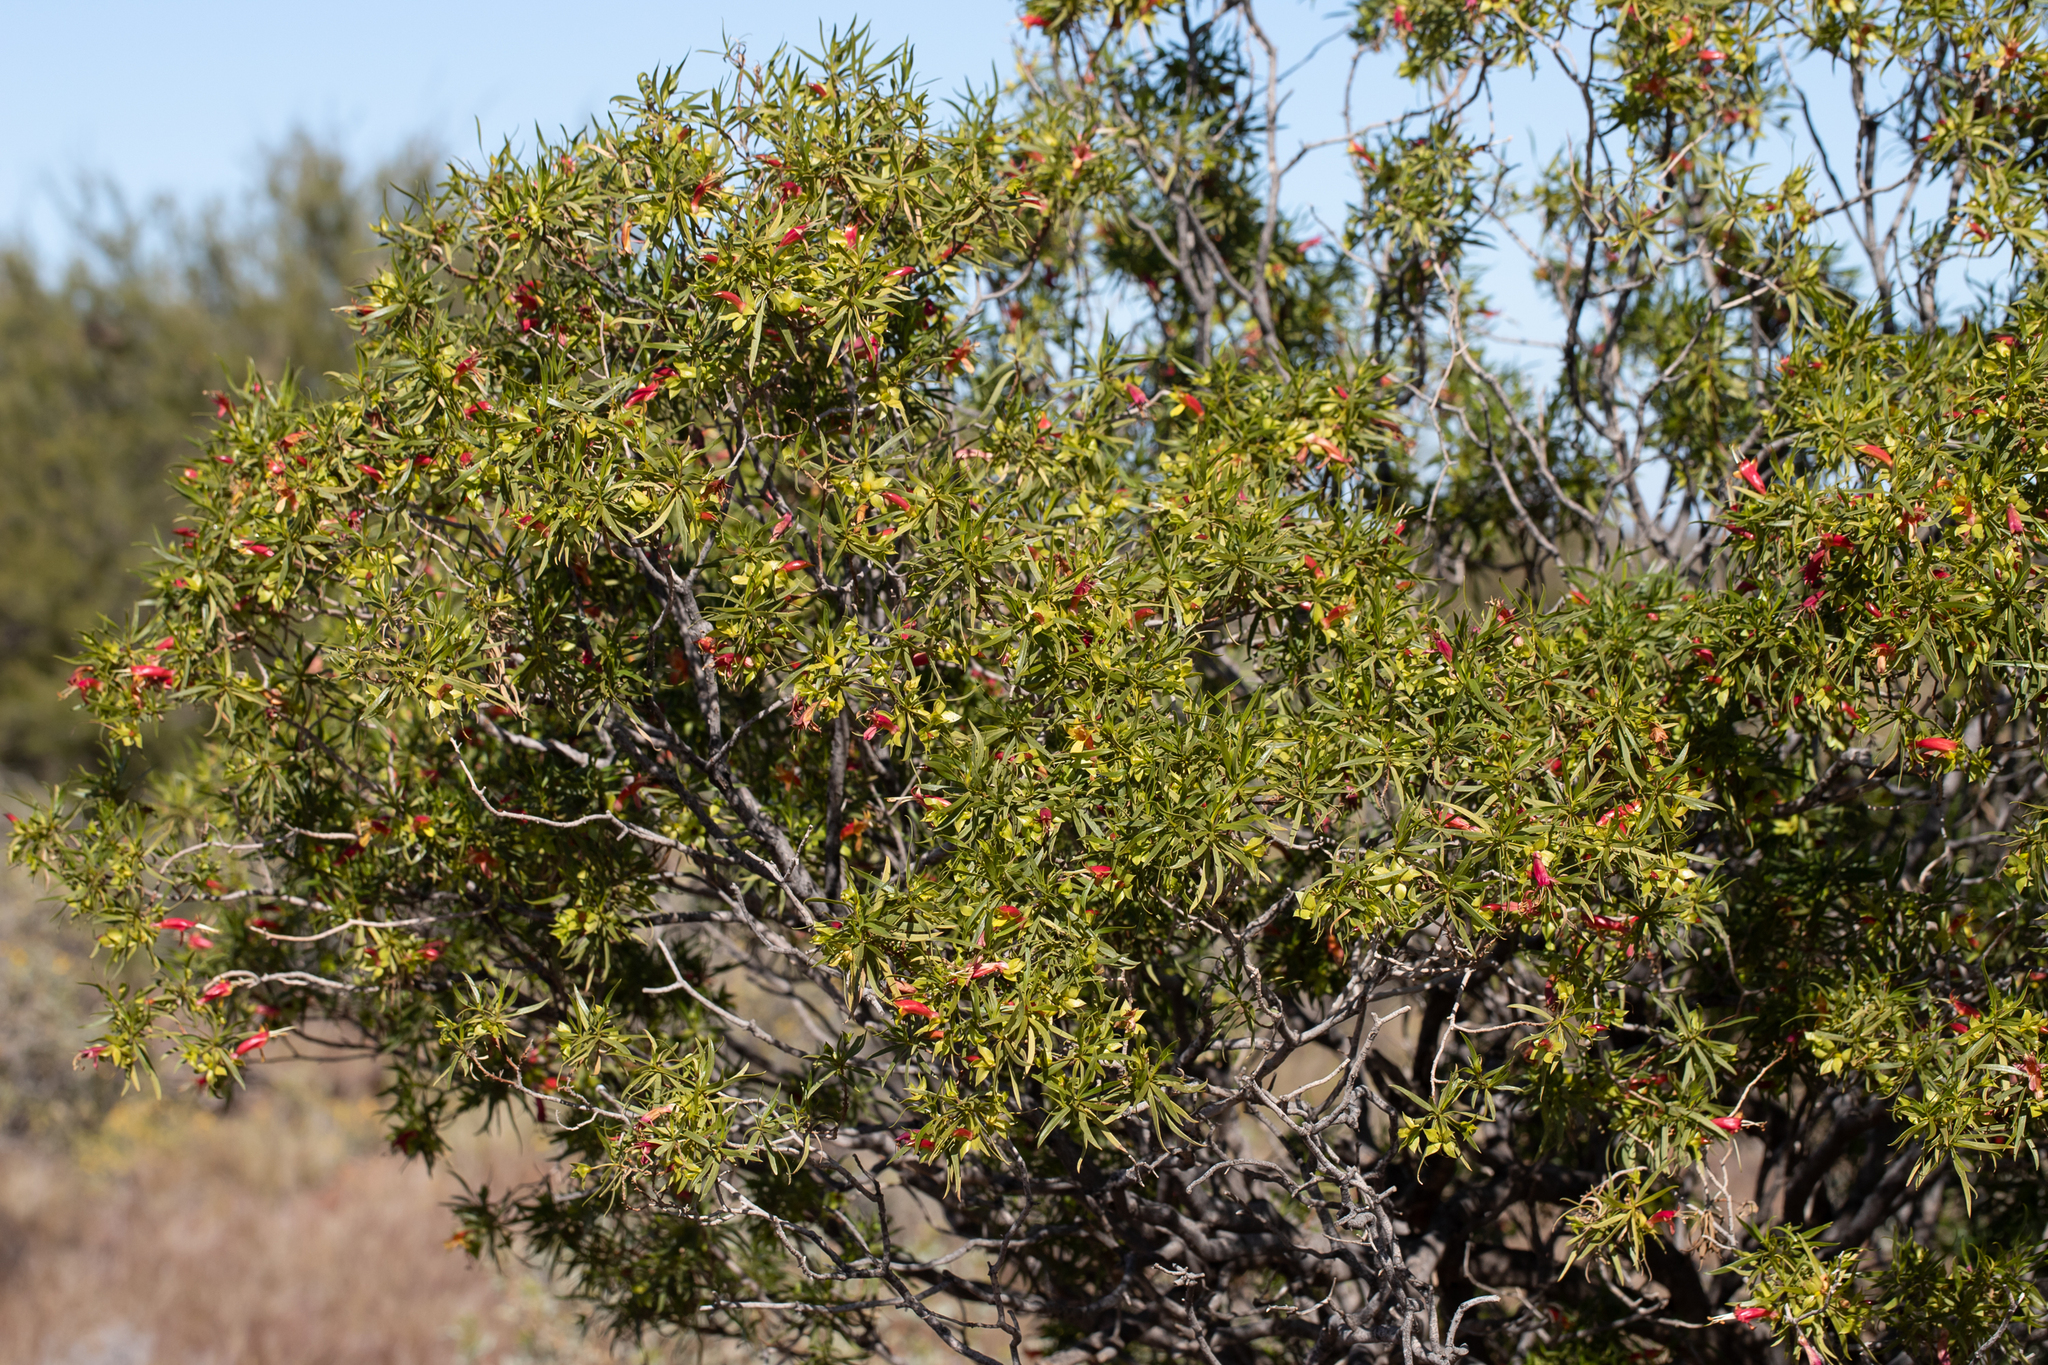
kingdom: Plantae
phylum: Tracheophyta
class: Magnoliopsida
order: Lamiales
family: Scrophulariaceae
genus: Eremophila
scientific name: Eremophila duttonii
